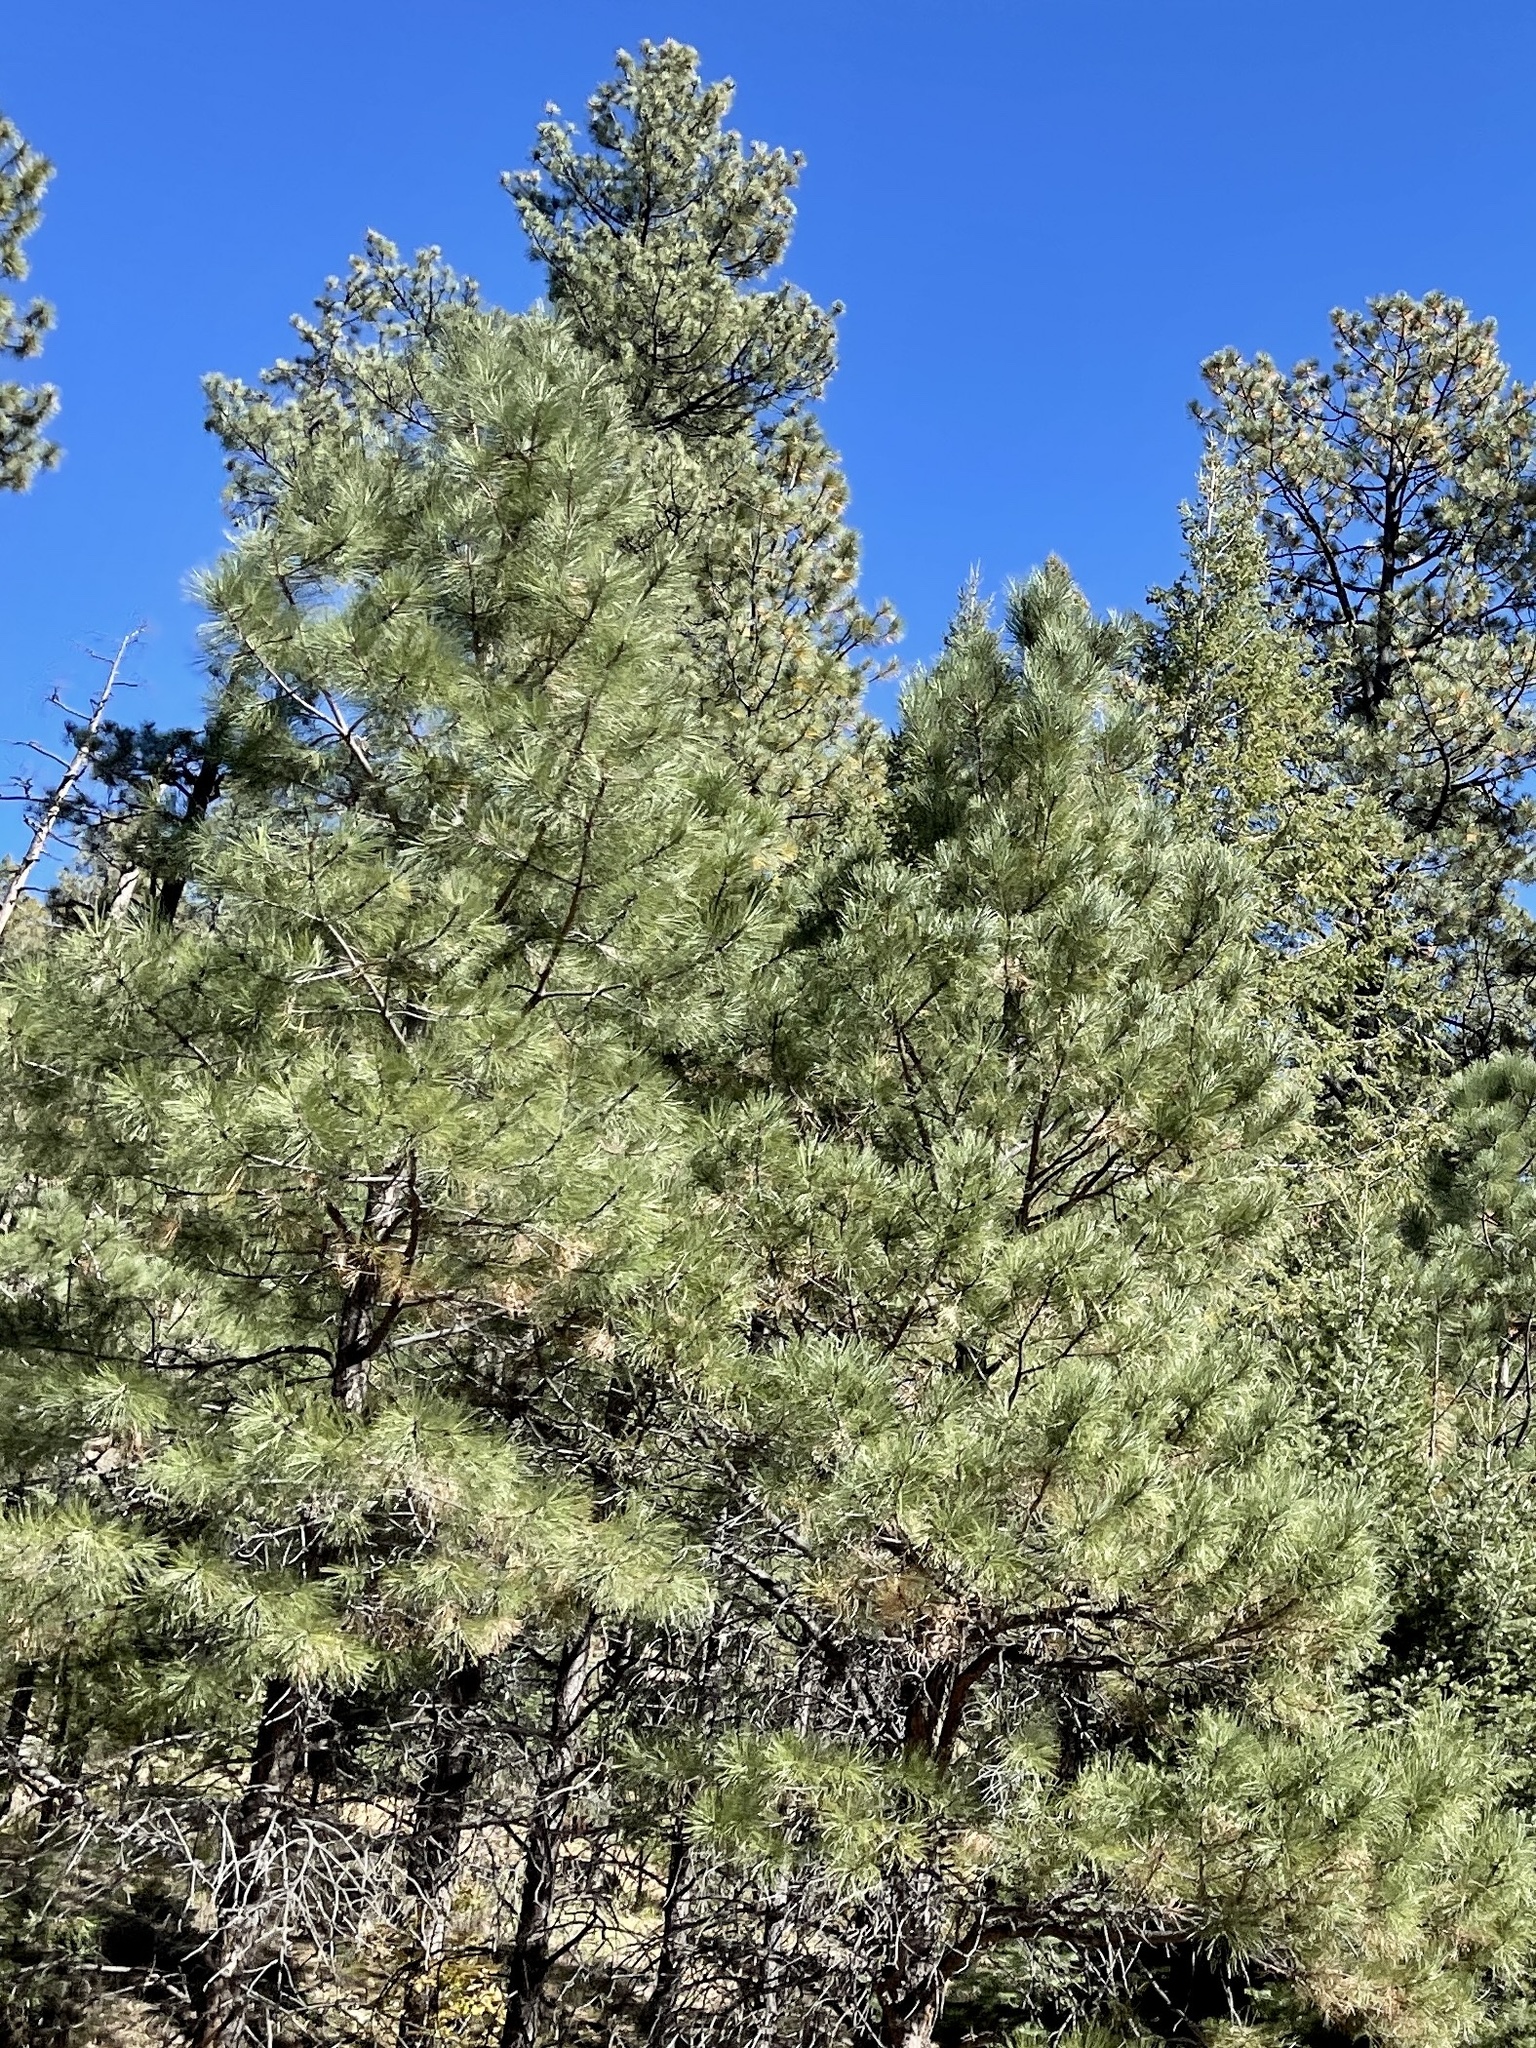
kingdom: Plantae
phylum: Tracheophyta
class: Pinopsida
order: Pinales
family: Pinaceae
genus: Pinus
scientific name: Pinus ponderosa
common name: Western yellow-pine
